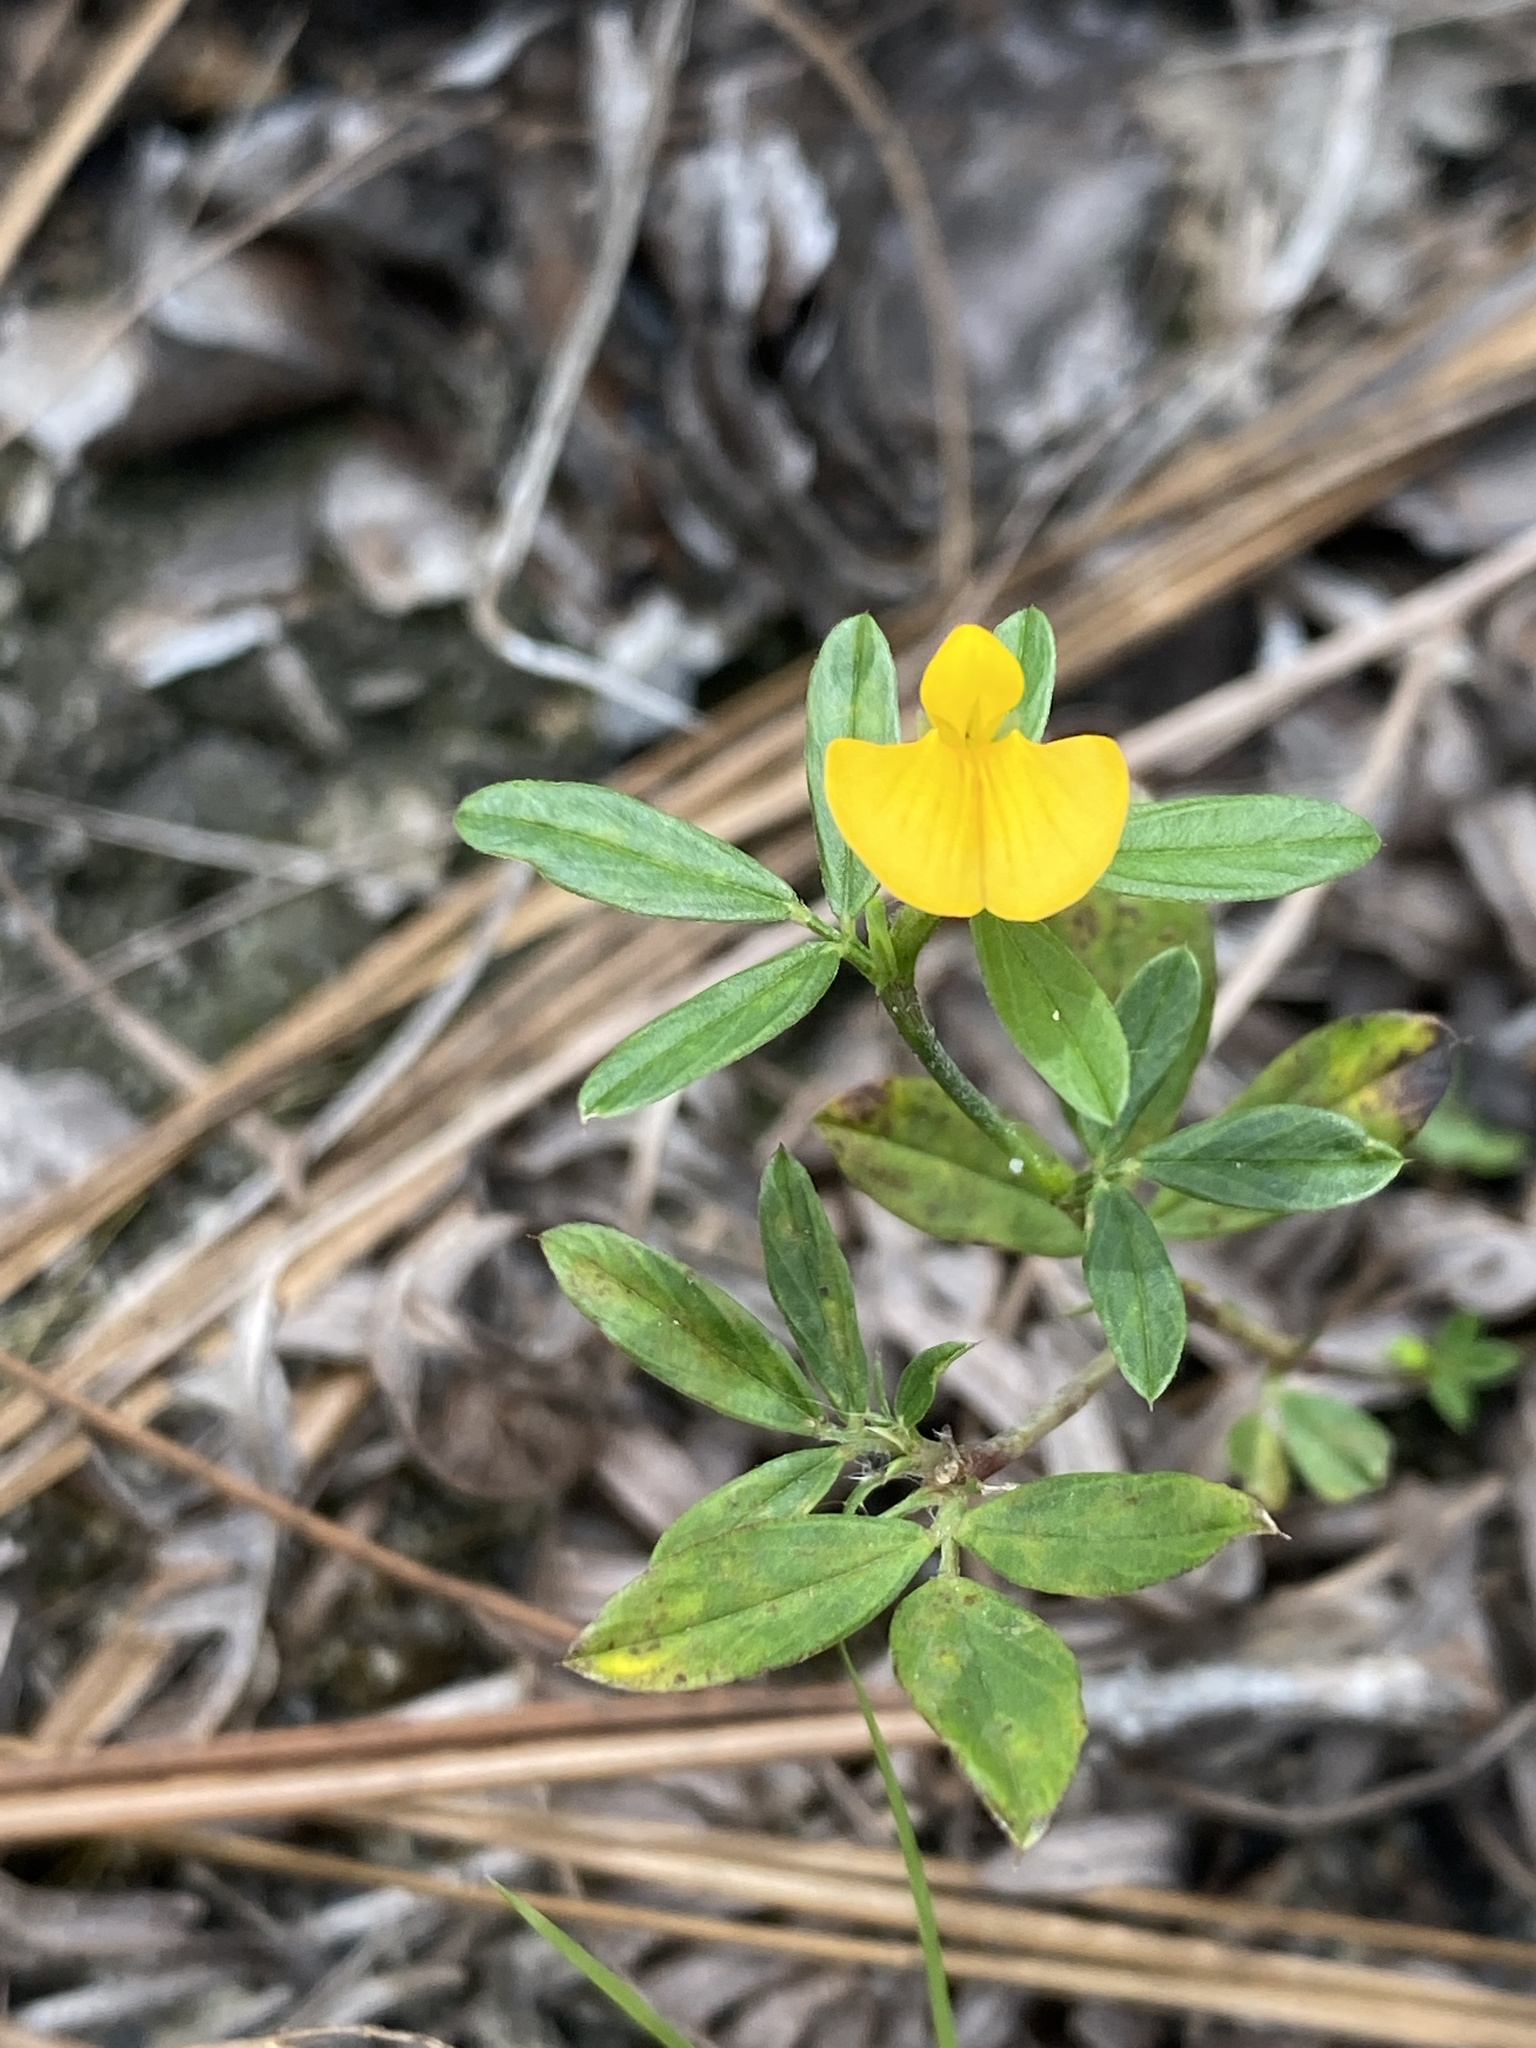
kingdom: Plantae
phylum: Tracheophyta
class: Magnoliopsida
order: Fabales
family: Fabaceae
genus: Stylosanthes
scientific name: Stylosanthes biflora
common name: Two-flower pencil-flower
